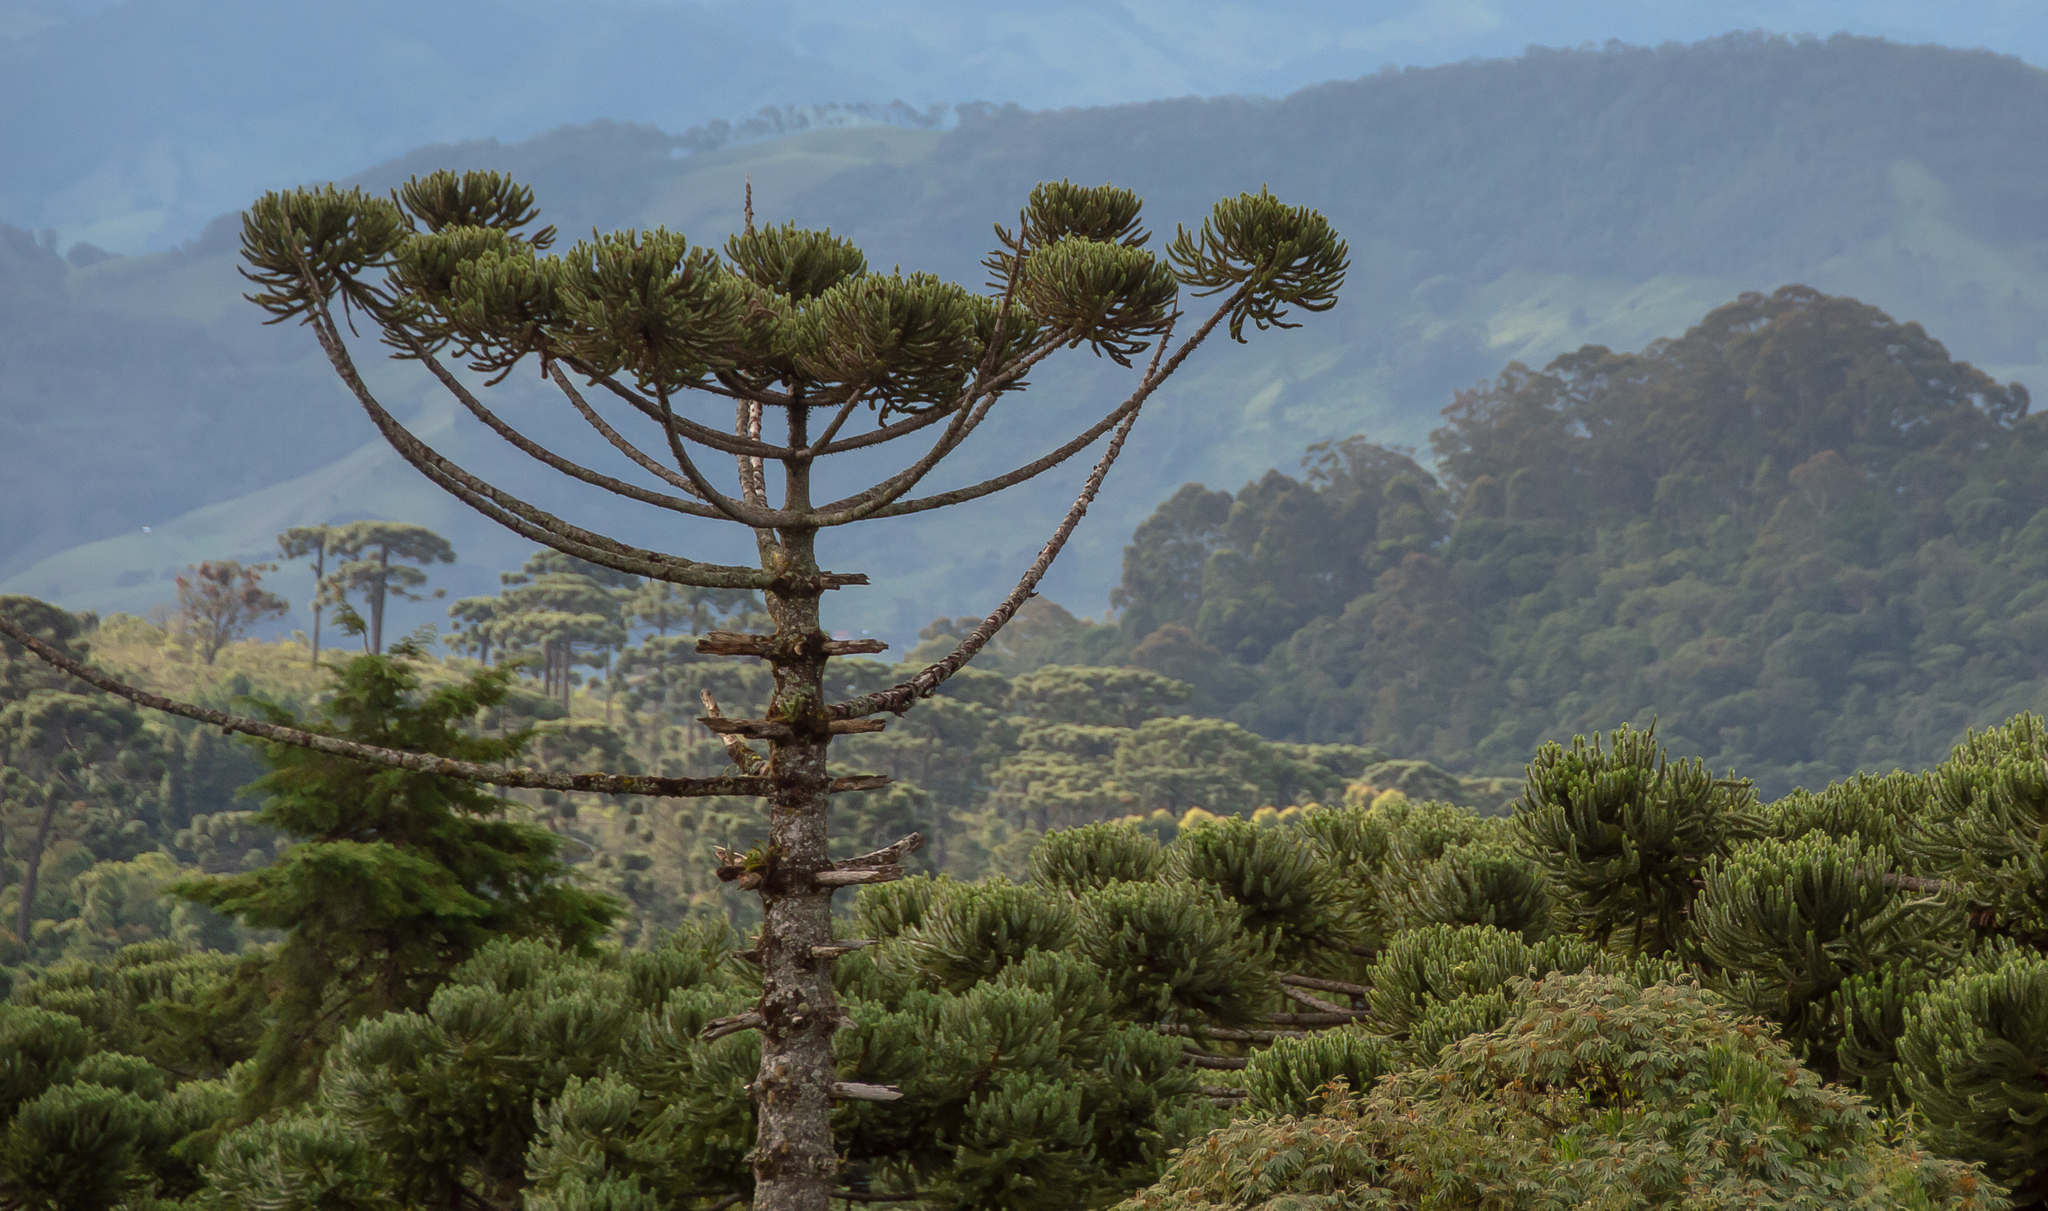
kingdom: Plantae
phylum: Tracheophyta
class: Pinopsida
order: Pinales
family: Araucariaceae
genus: Araucaria
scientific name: Araucaria angustifolia
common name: Candelabra tree
